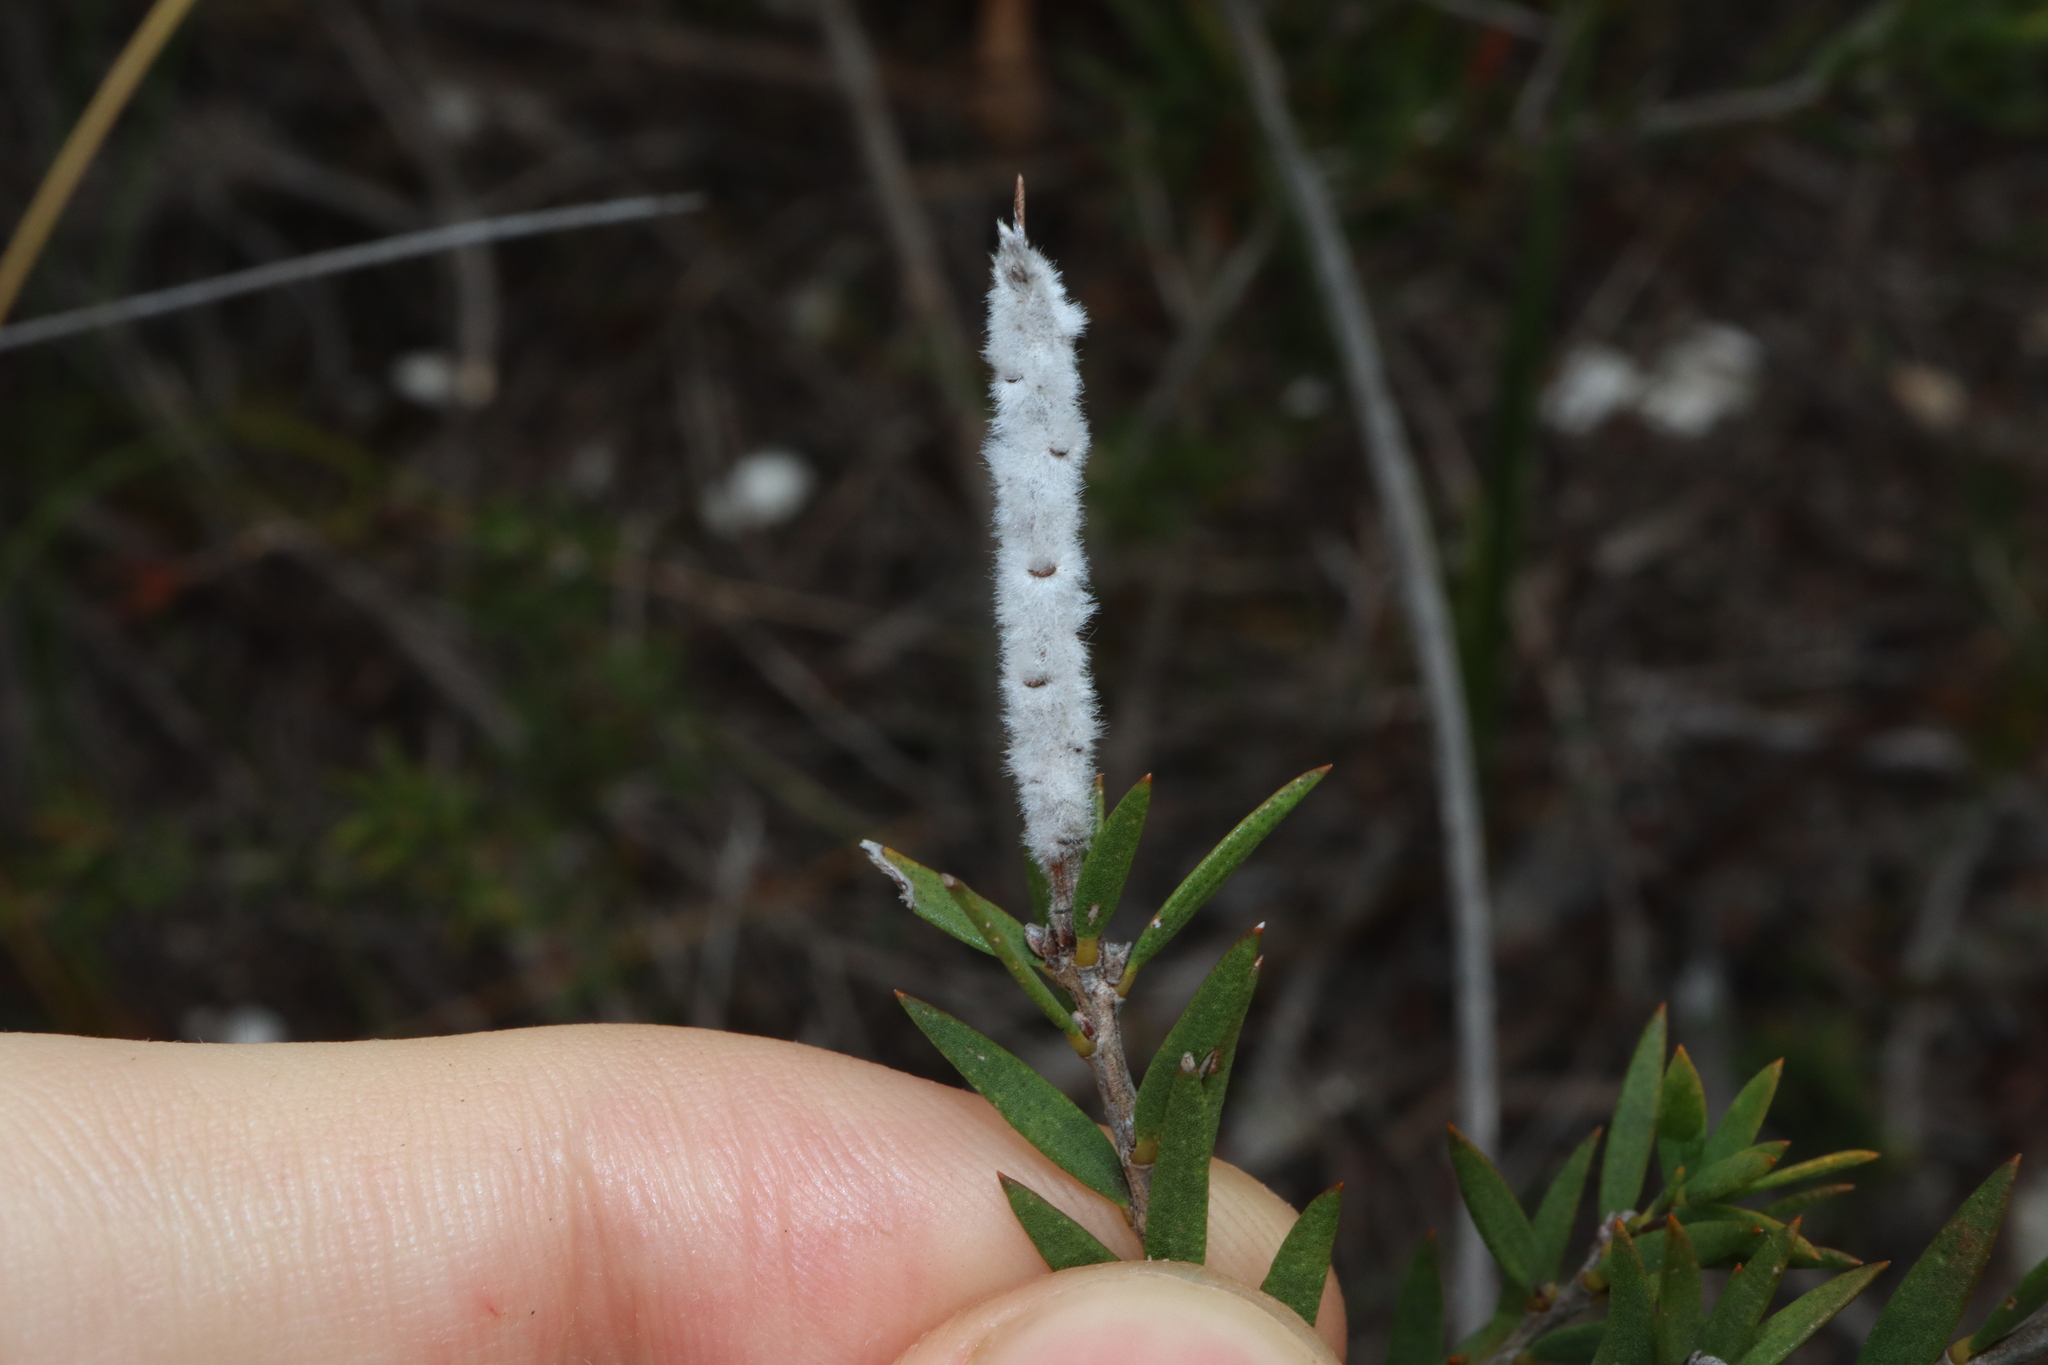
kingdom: Plantae
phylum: Tracheophyta
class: Magnoliopsida
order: Myrtales
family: Myrtaceae
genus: Melaleuca
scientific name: Melaleuca striata
